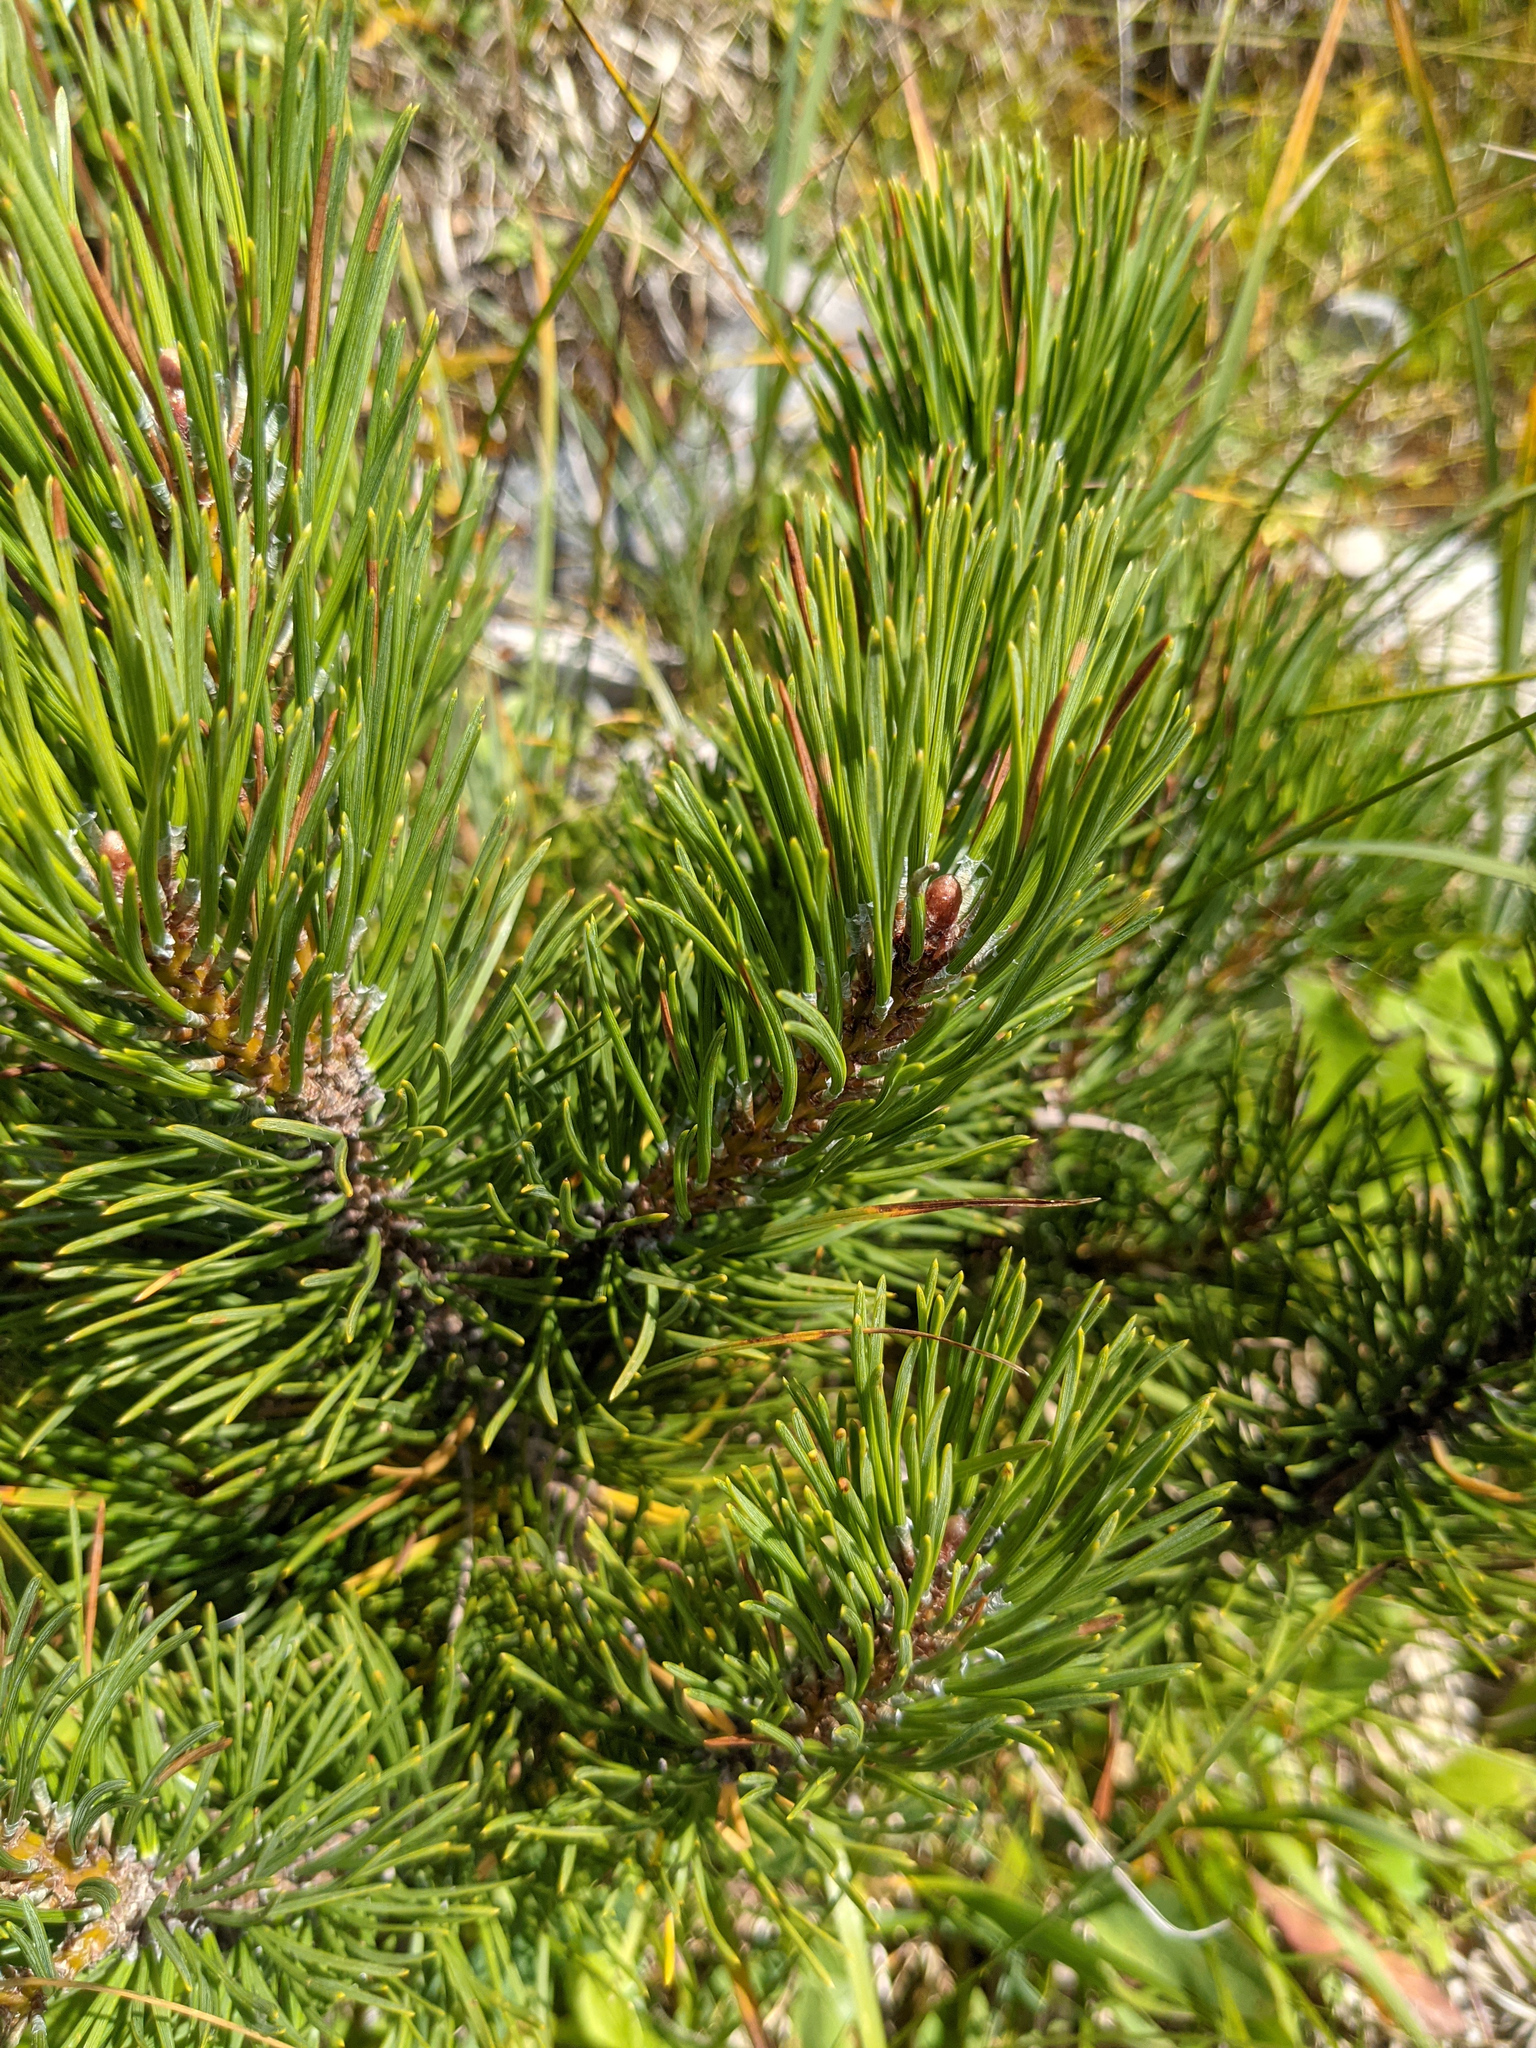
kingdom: Plantae
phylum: Tracheophyta
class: Pinopsida
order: Pinales
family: Pinaceae
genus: Pinus
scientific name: Pinus mugo
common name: Mugo pine
